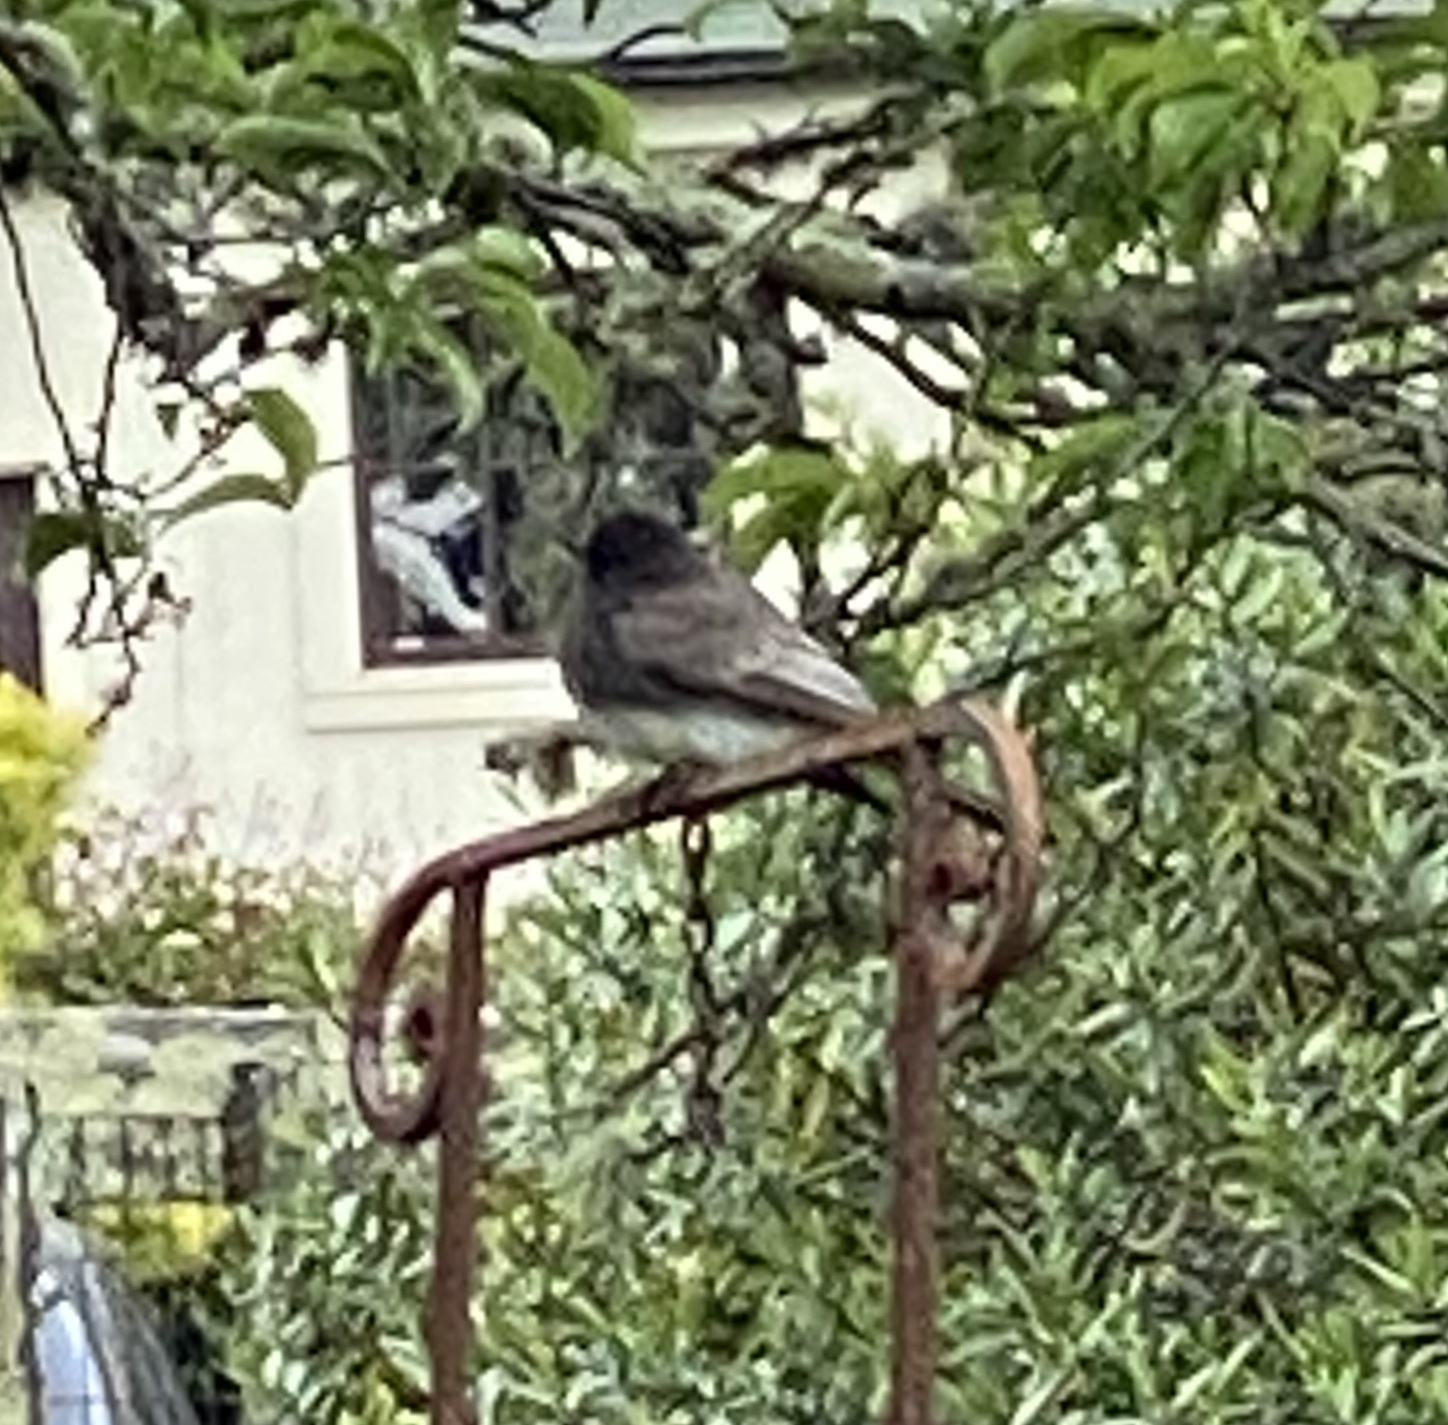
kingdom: Animalia
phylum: Chordata
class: Aves
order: Passeriformes
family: Tyrannidae
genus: Sayornis
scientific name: Sayornis nigricans
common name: Black phoebe
